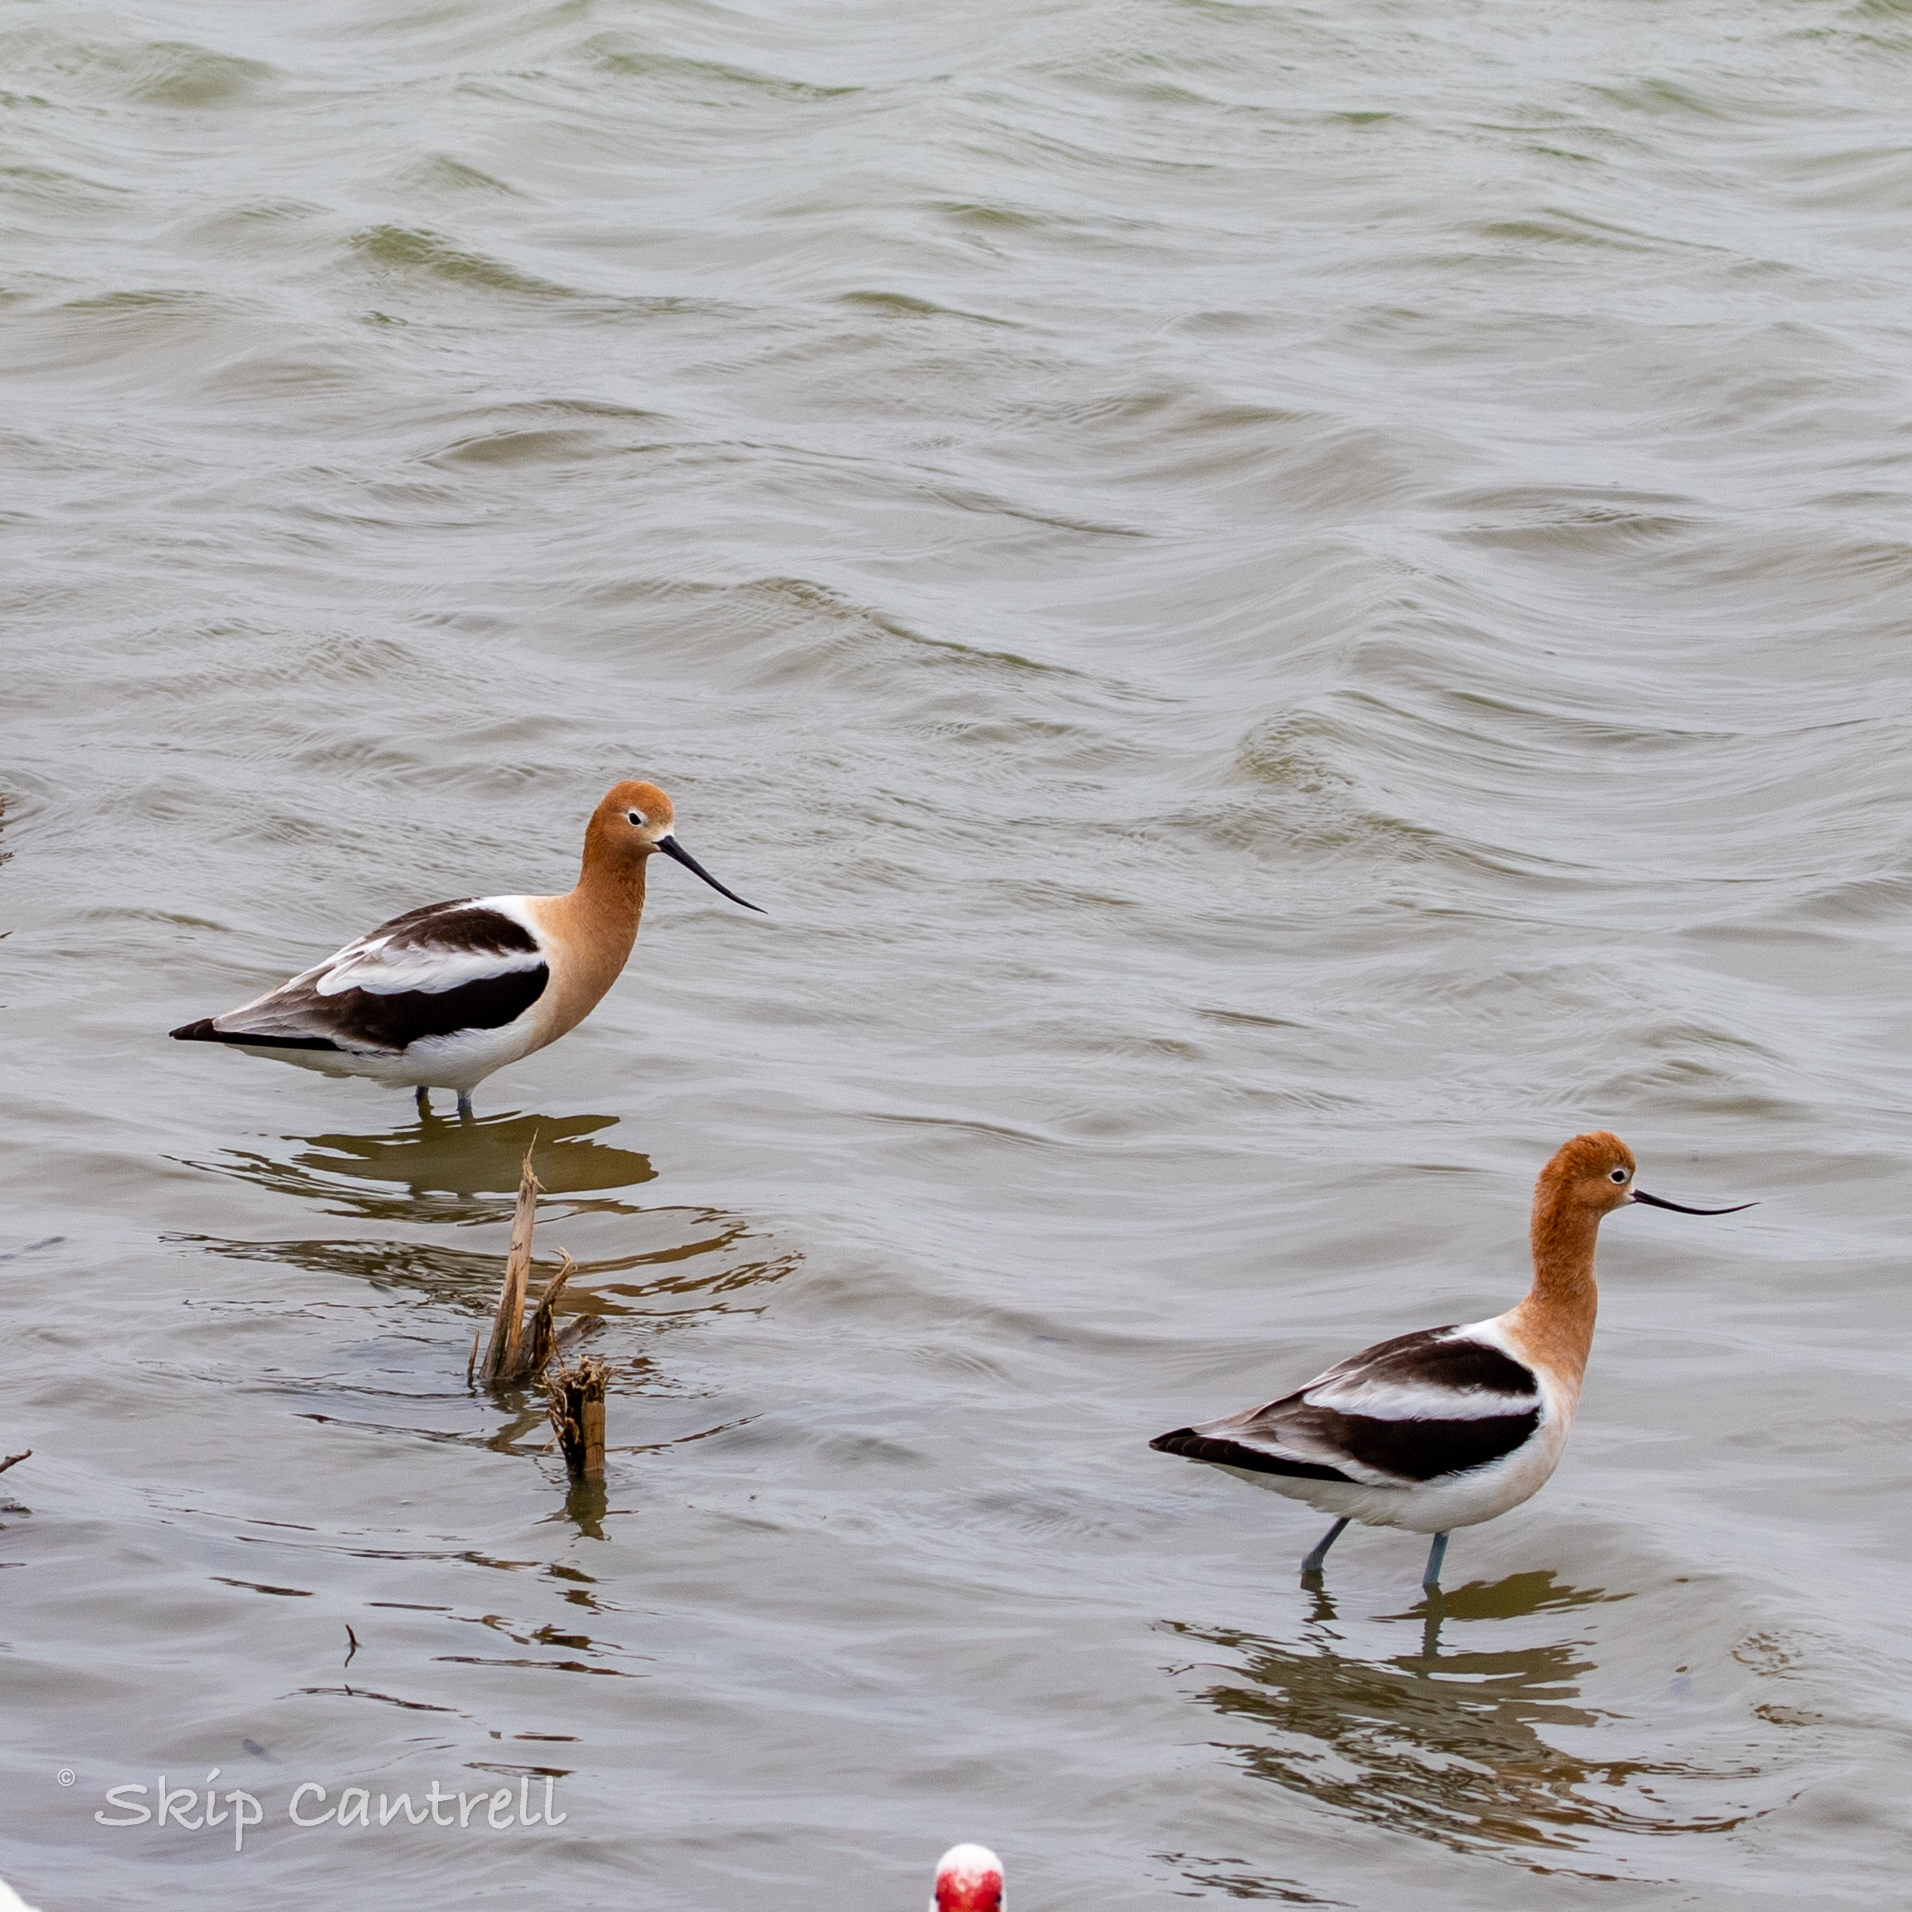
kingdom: Animalia
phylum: Chordata
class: Aves
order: Charadriiformes
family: Recurvirostridae
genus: Recurvirostra
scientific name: Recurvirostra americana
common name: American avocet
